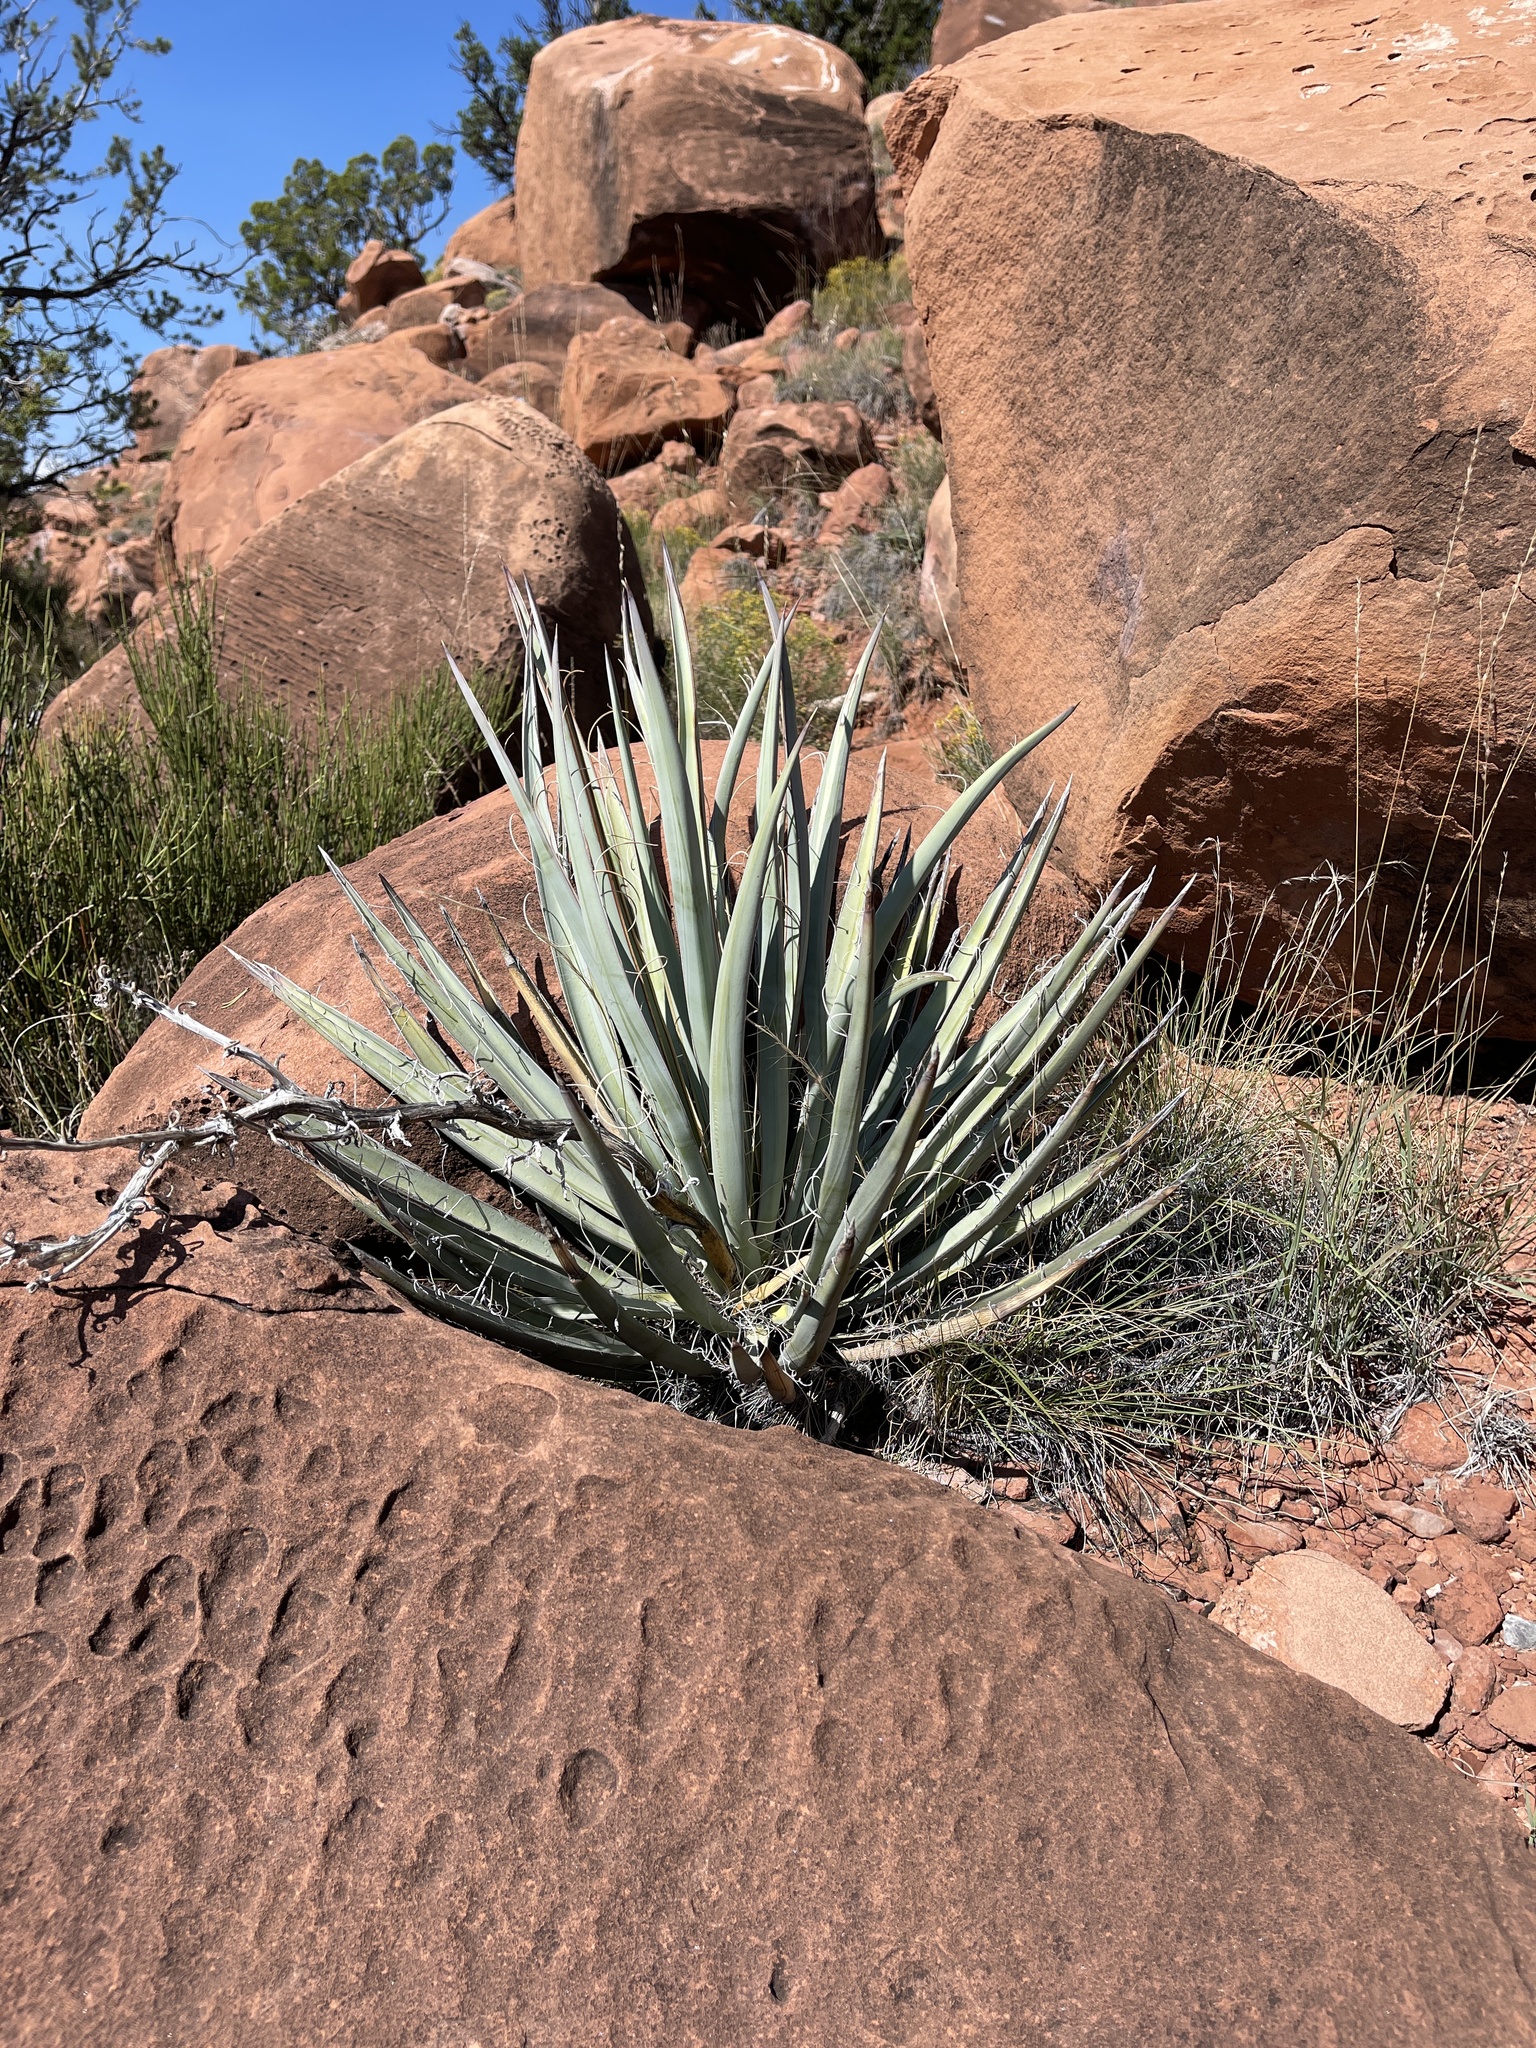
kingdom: Plantae
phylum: Tracheophyta
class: Liliopsida
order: Asparagales
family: Asparagaceae
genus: Yucca
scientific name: Yucca baccata
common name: Banana yucca
